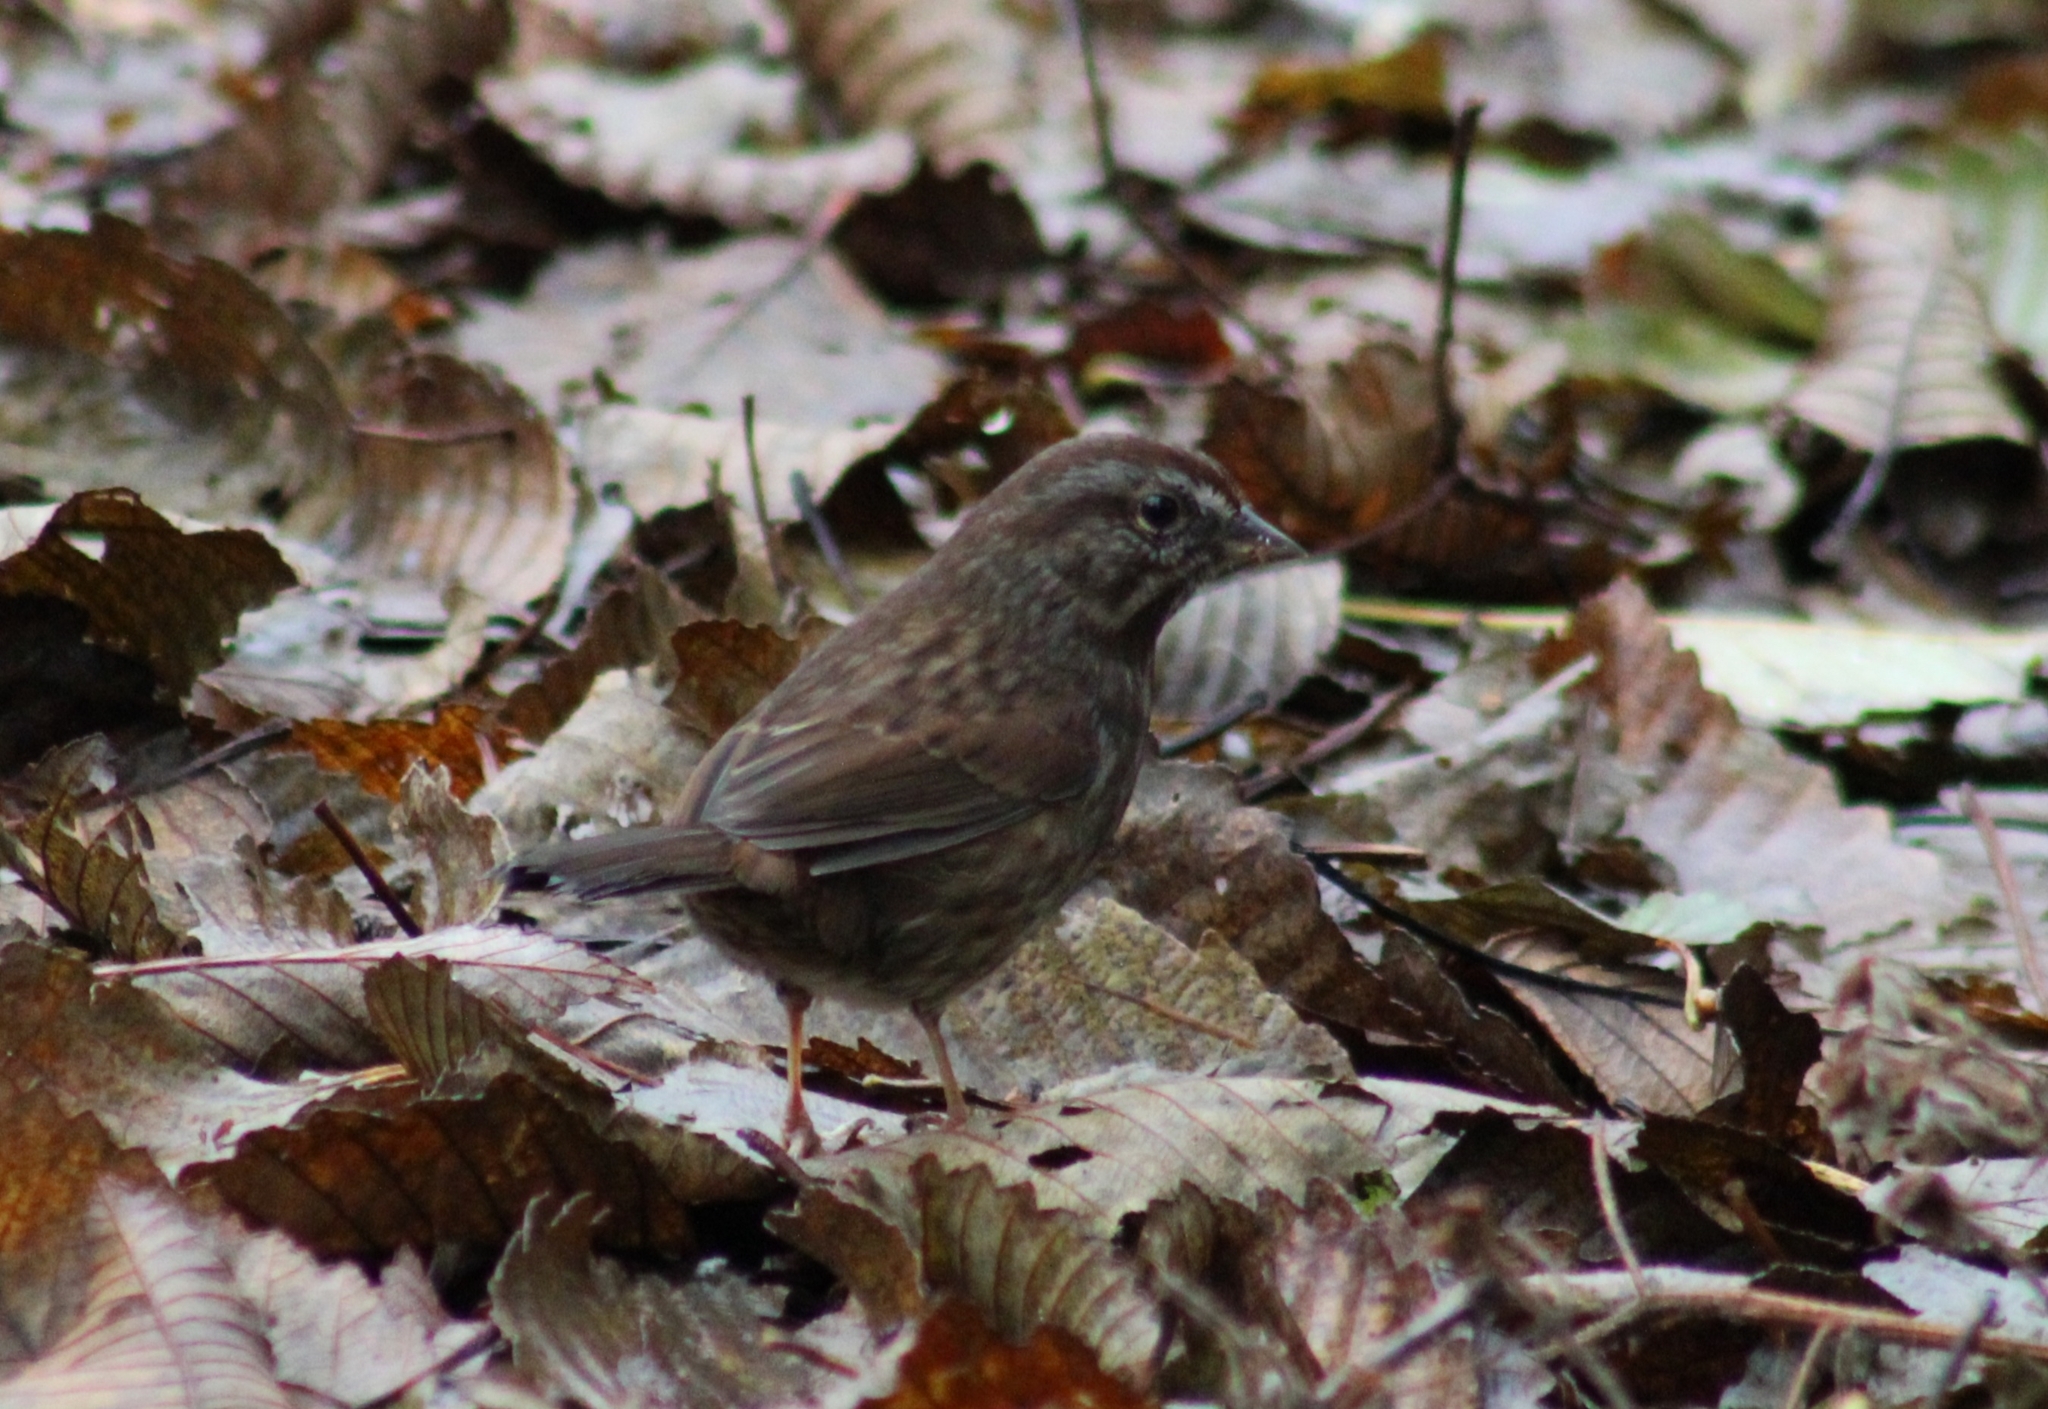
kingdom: Animalia
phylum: Chordata
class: Aves
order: Passeriformes
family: Passerellidae
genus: Melospiza
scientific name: Melospiza melodia
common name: Song sparrow
